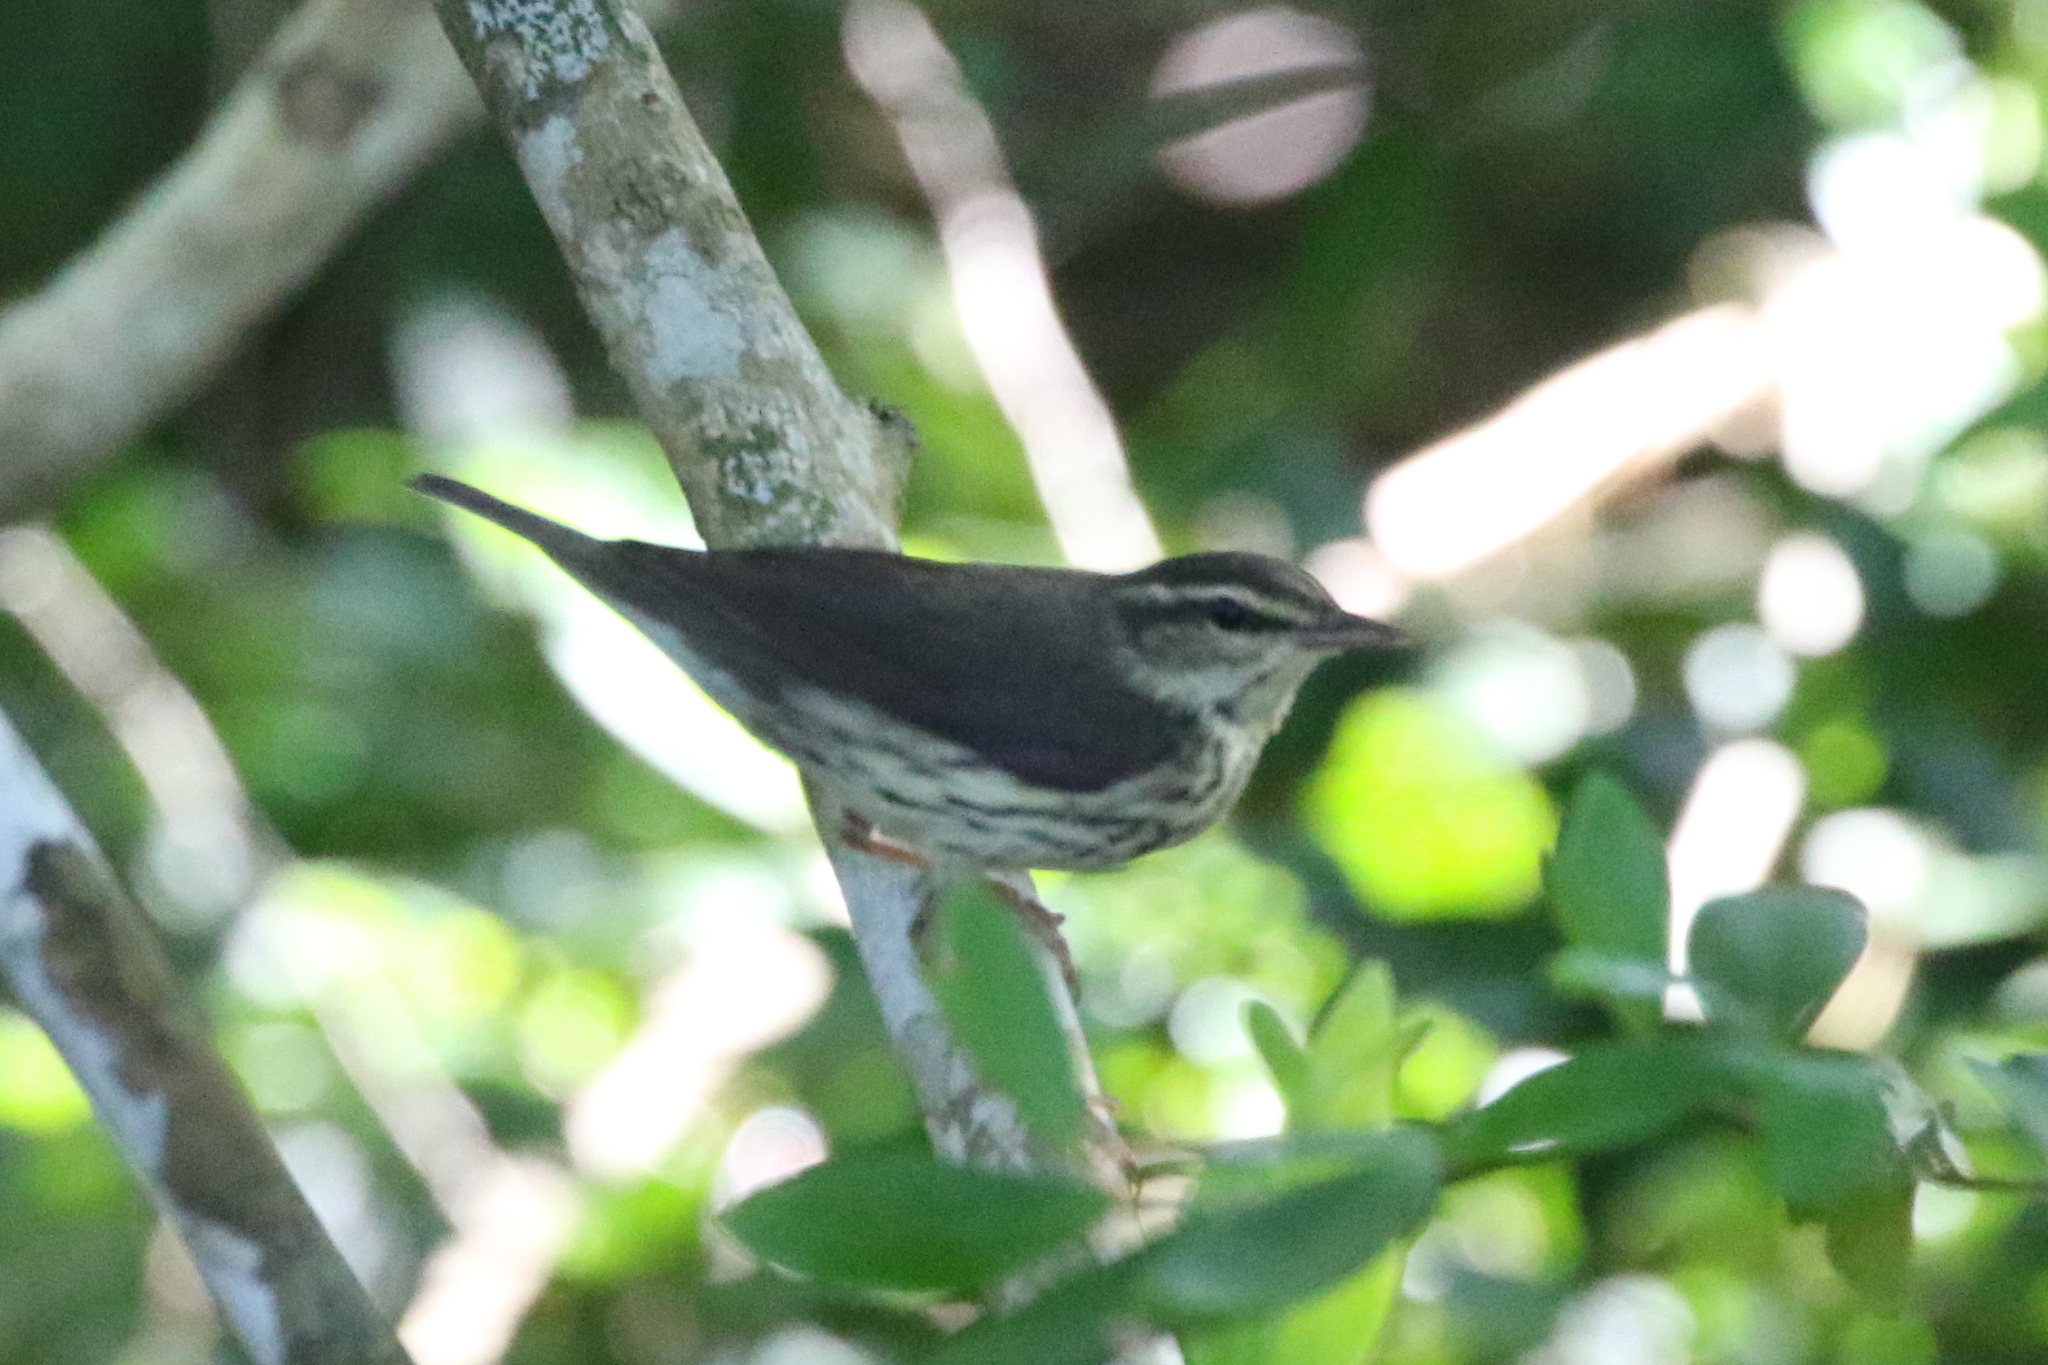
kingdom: Animalia
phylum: Chordata
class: Aves
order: Passeriformes
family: Parulidae
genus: Parkesia
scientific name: Parkesia noveboracensis
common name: Northern waterthrush
